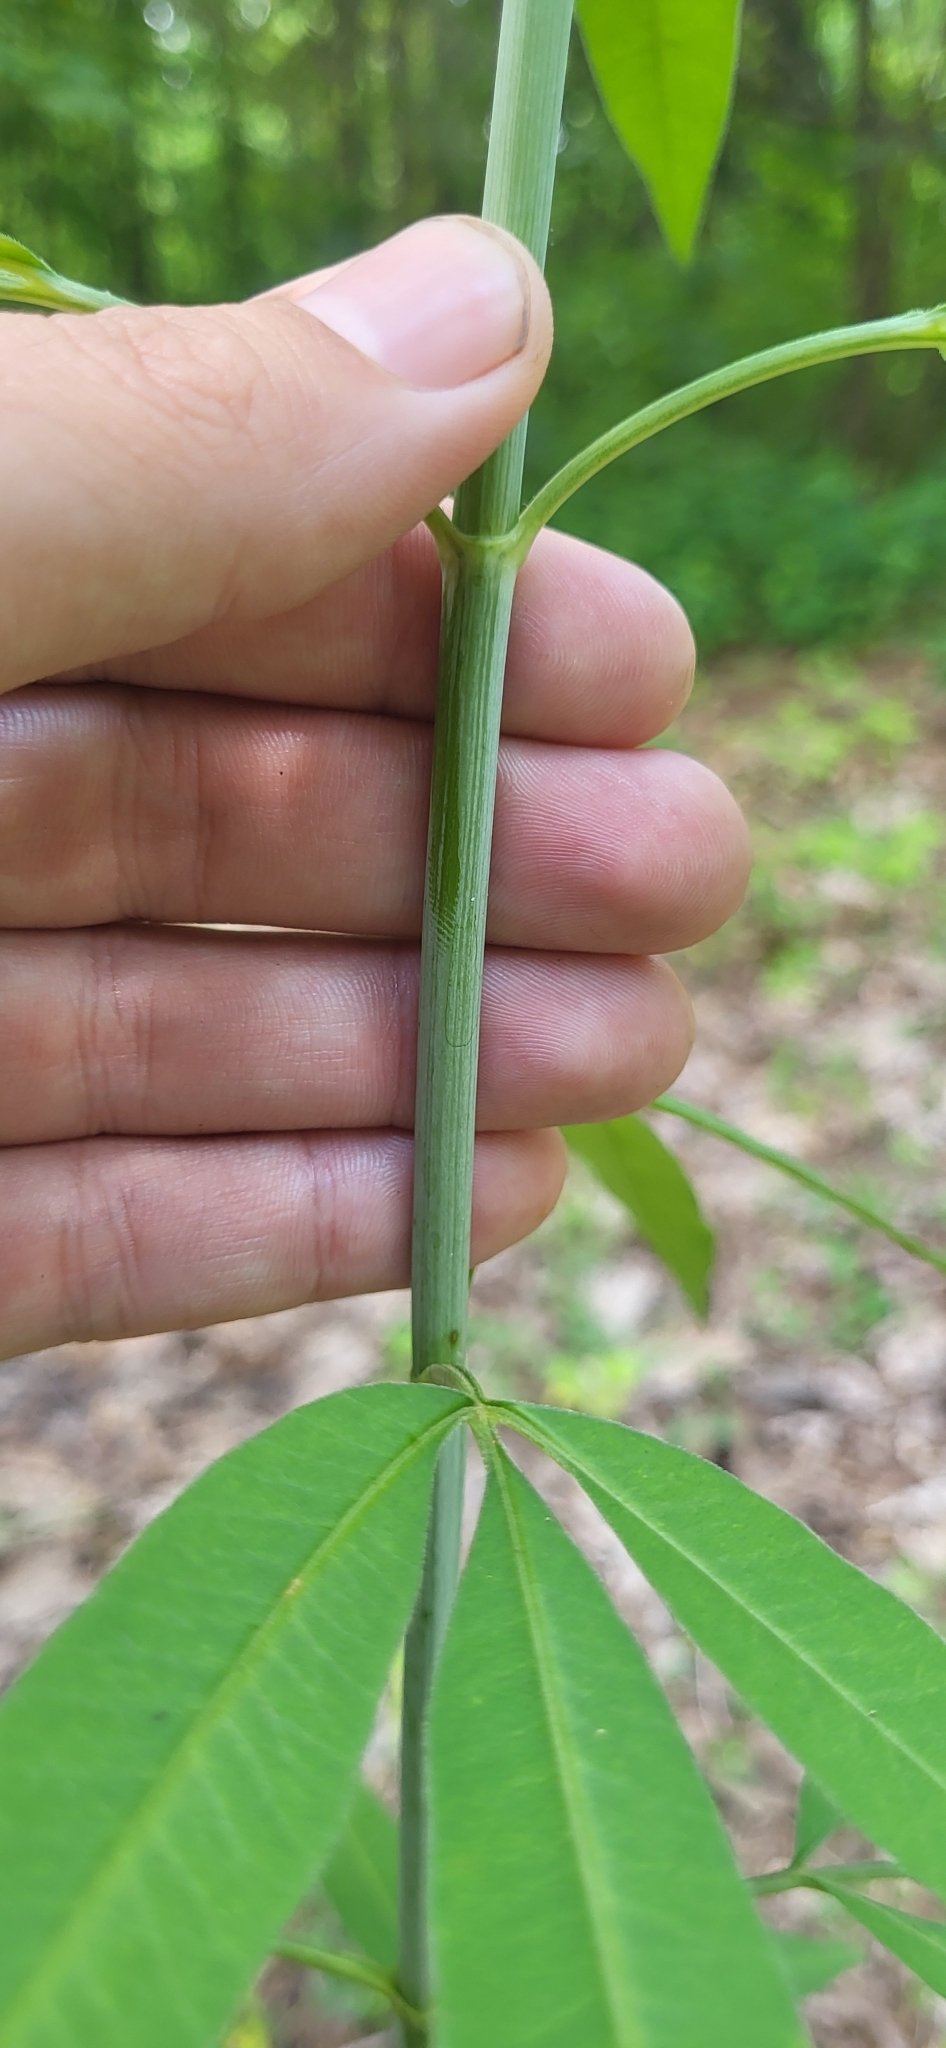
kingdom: Plantae
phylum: Tracheophyta
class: Magnoliopsida
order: Asterales
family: Asteraceae
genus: Coreopsis
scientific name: Coreopsis tripteris
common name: Tall coreopsis
